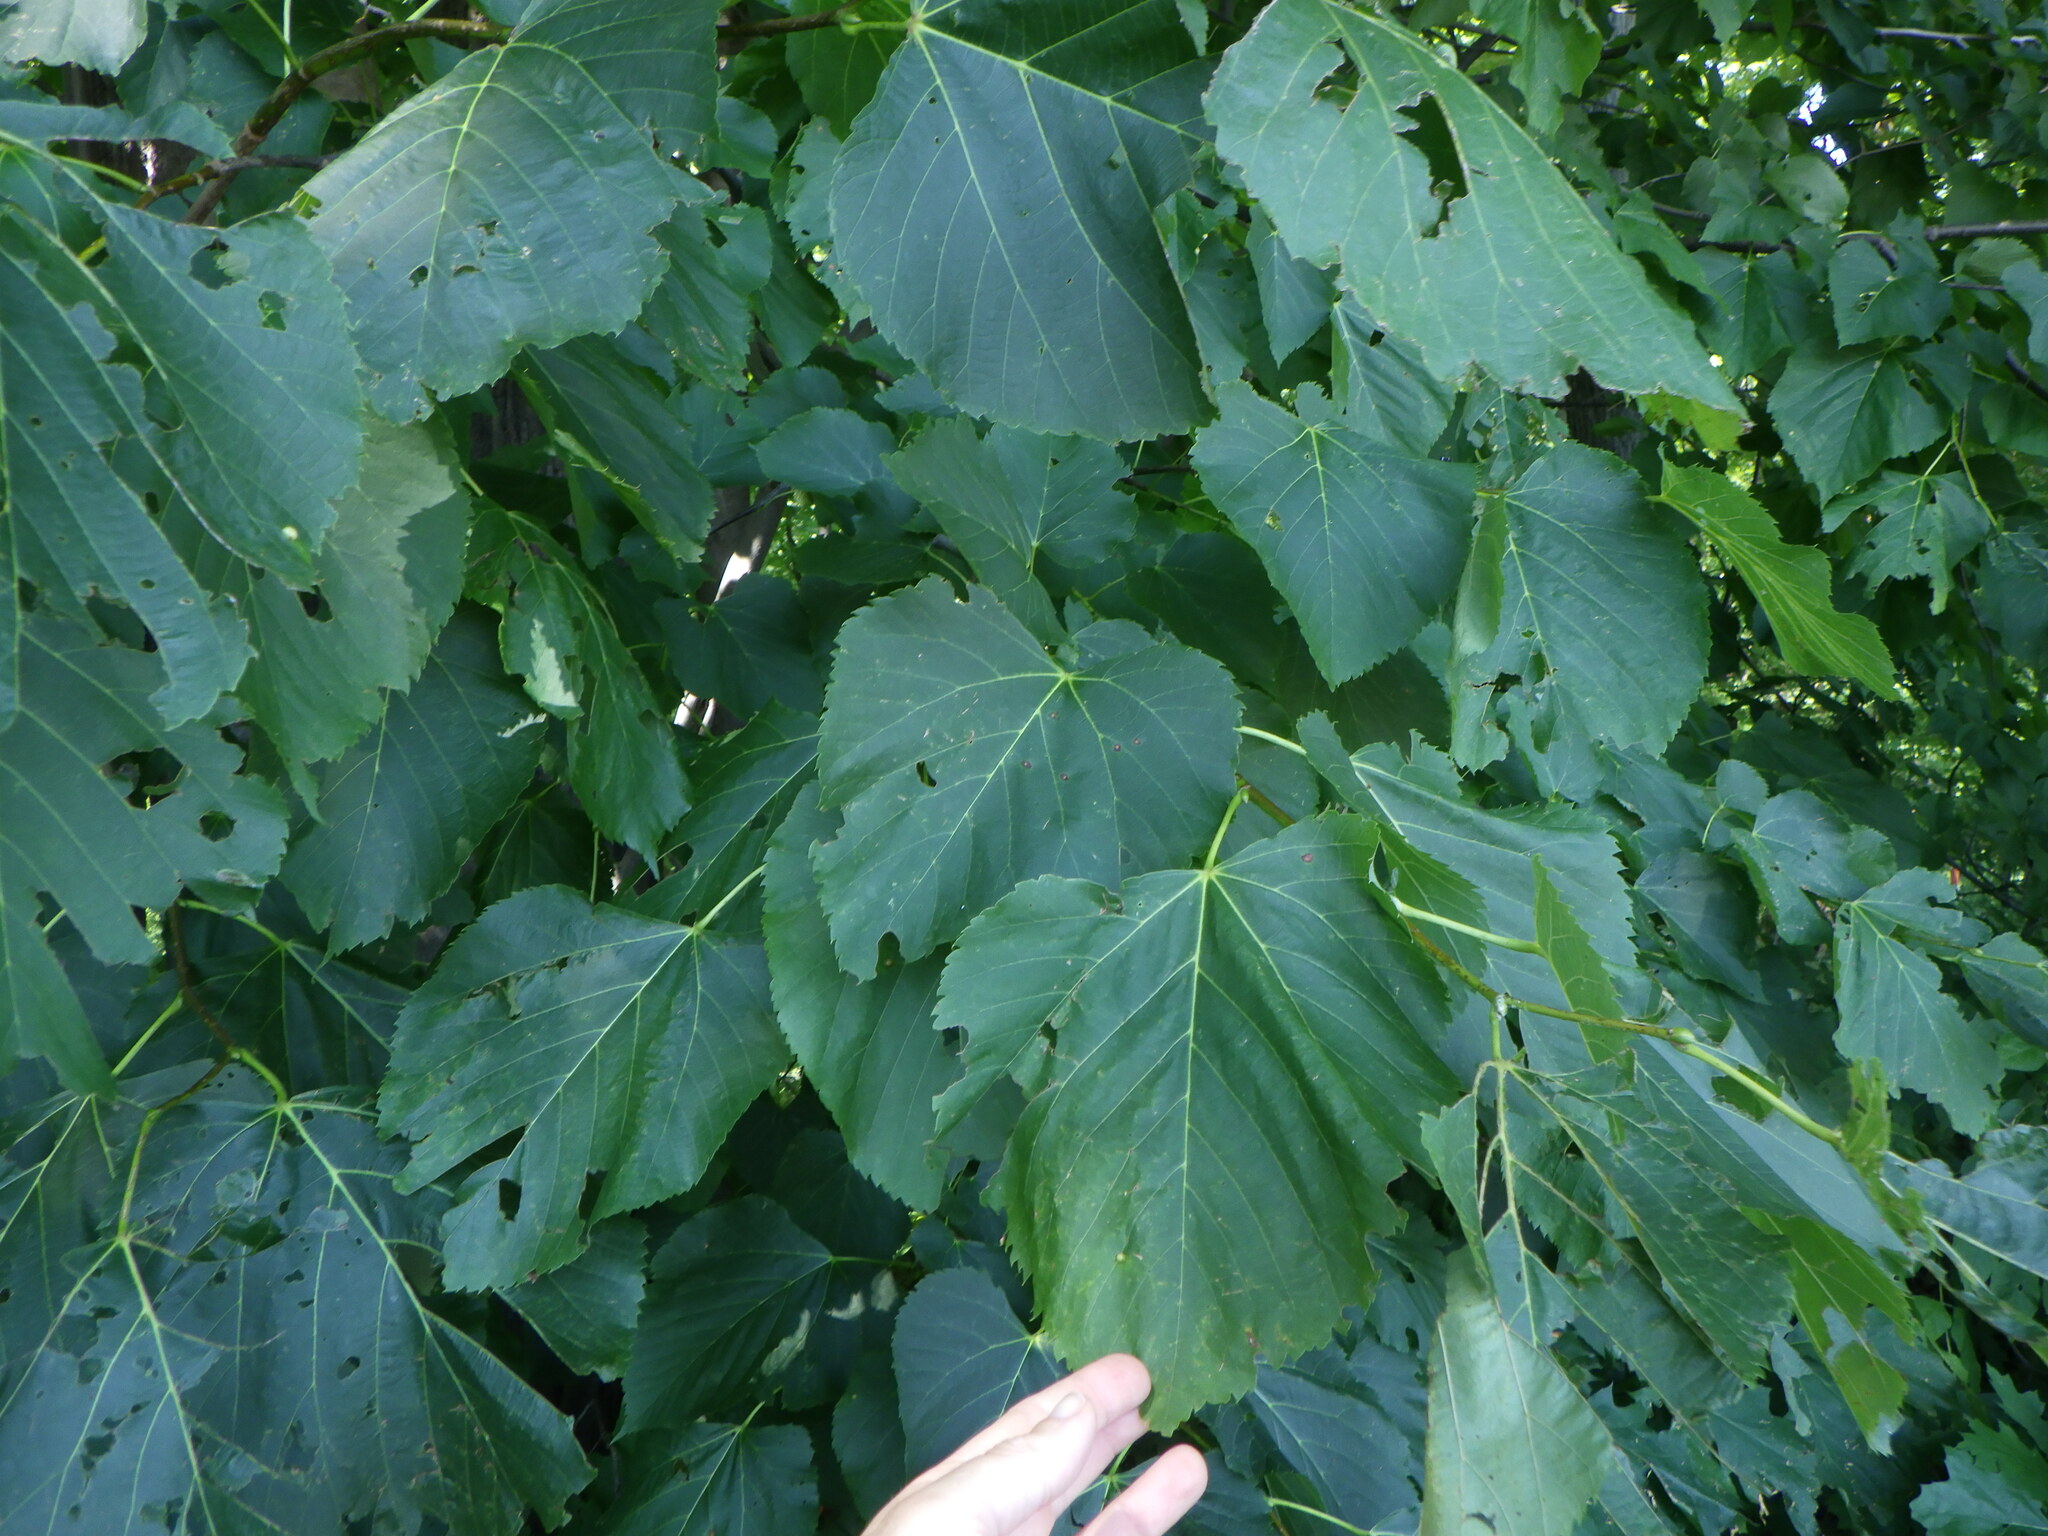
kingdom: Plantae
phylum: Tracheophyta
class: Magnoliopsida
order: Malvales
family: Malvaceae
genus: Tilia
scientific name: Tilia americana
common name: Basswood
